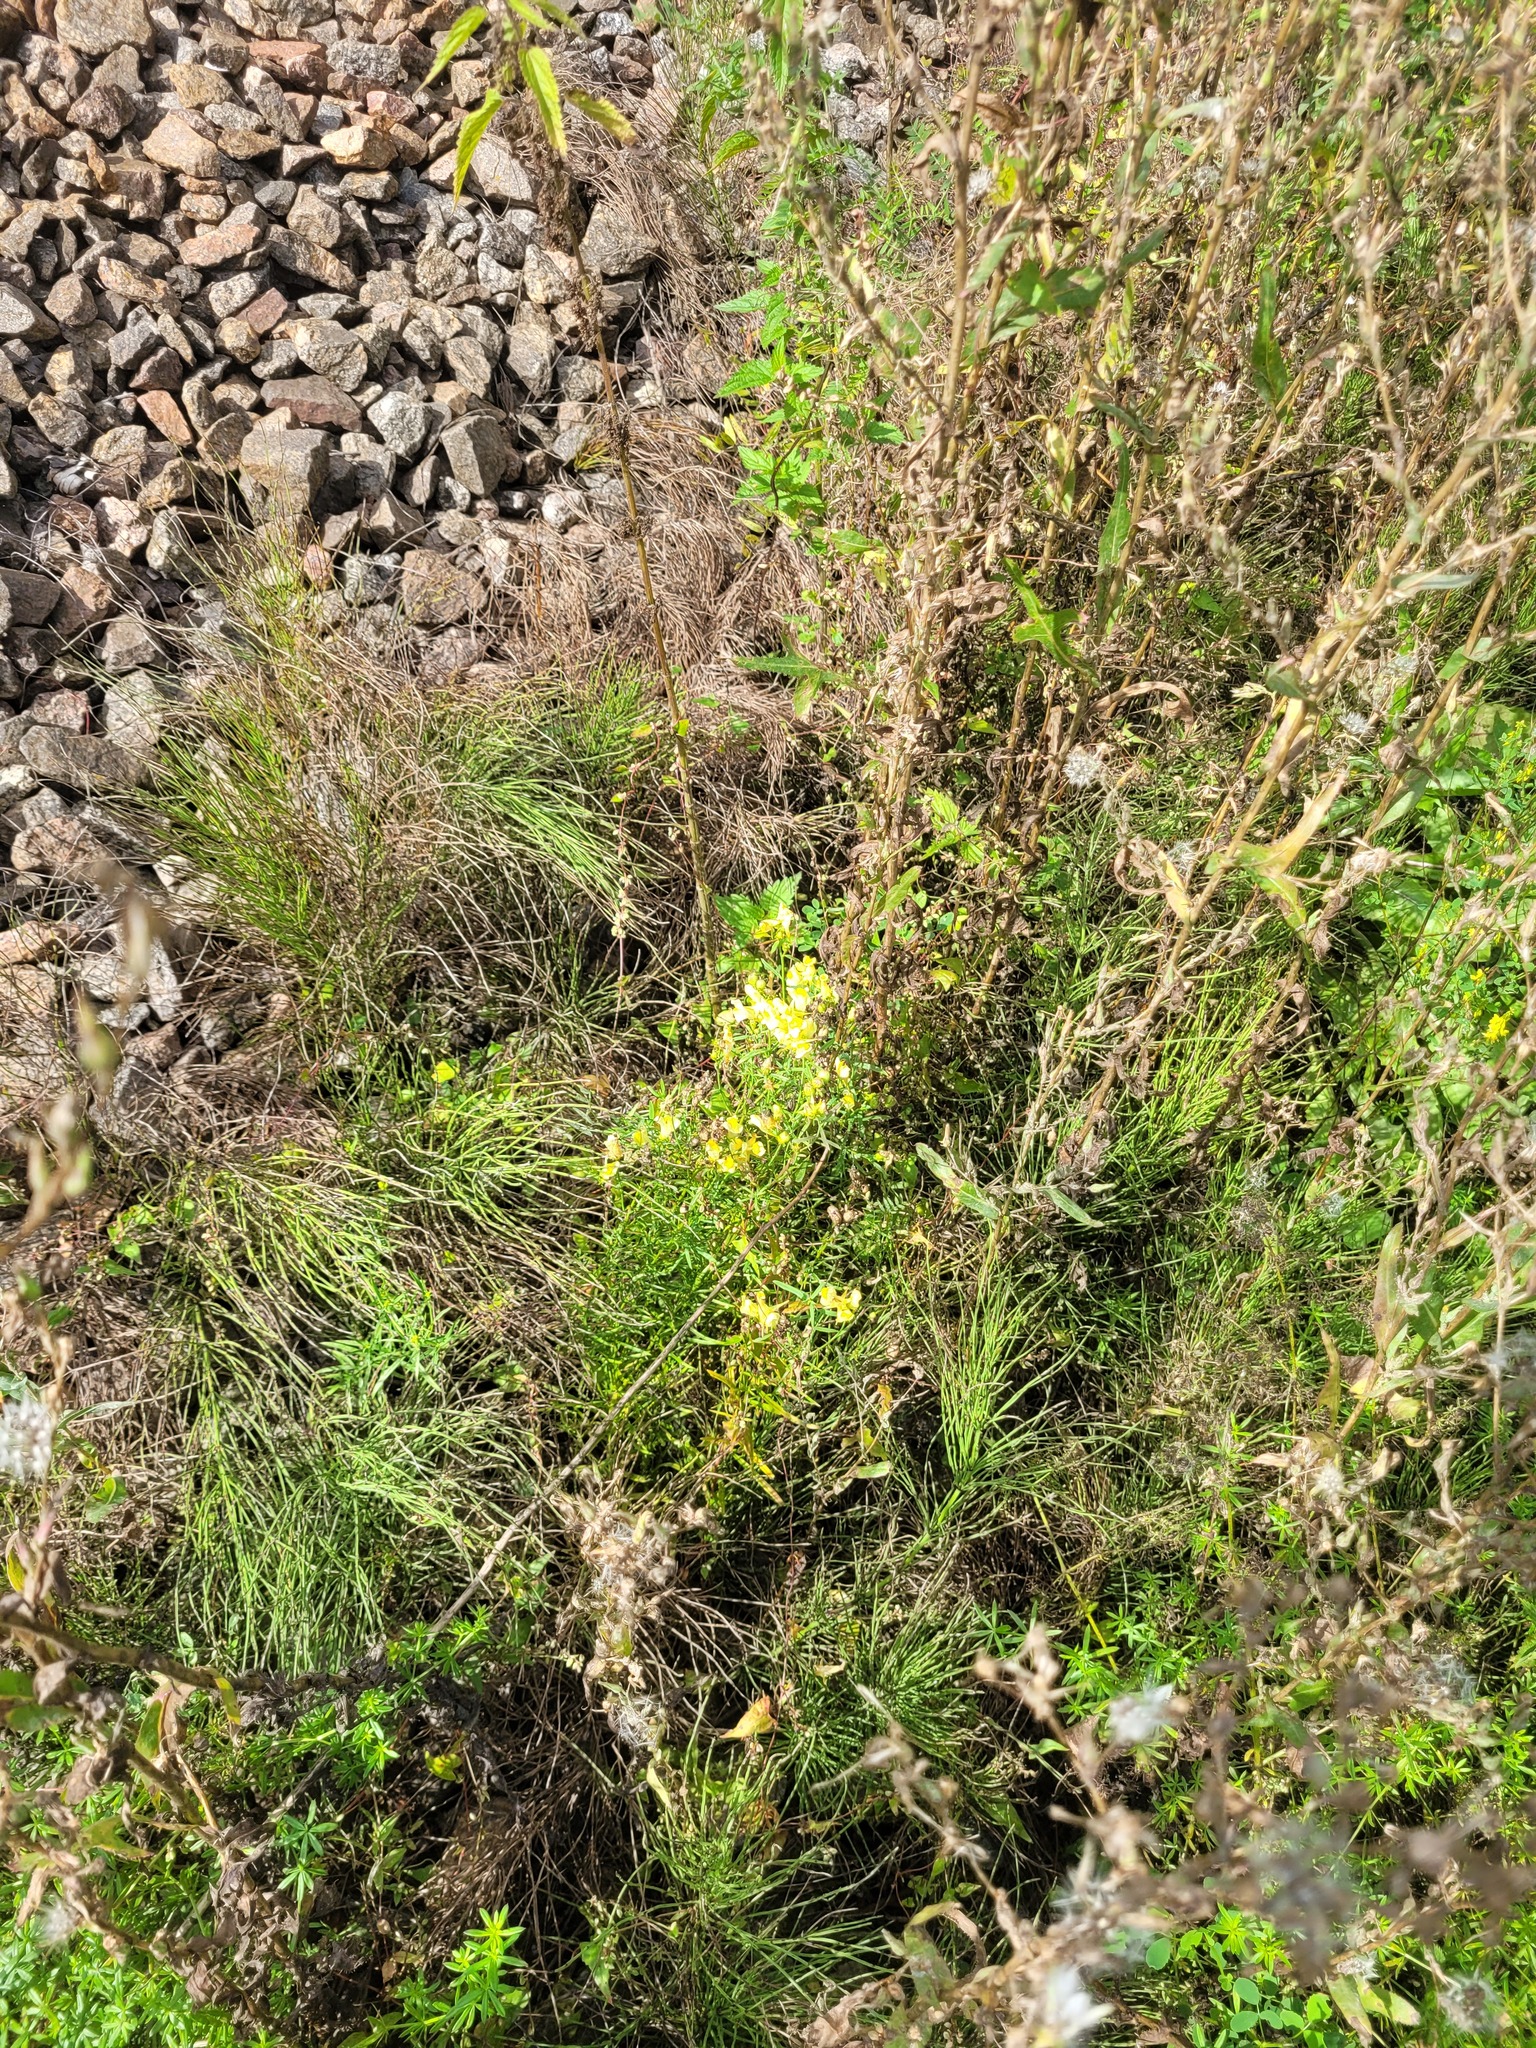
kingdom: Plantae
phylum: Tracheophyta
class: Magnoliopsida
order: Lamiales
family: Plantaginaceae
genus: Linaria
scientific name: Linaria vulgaris
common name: Butter and eggs
